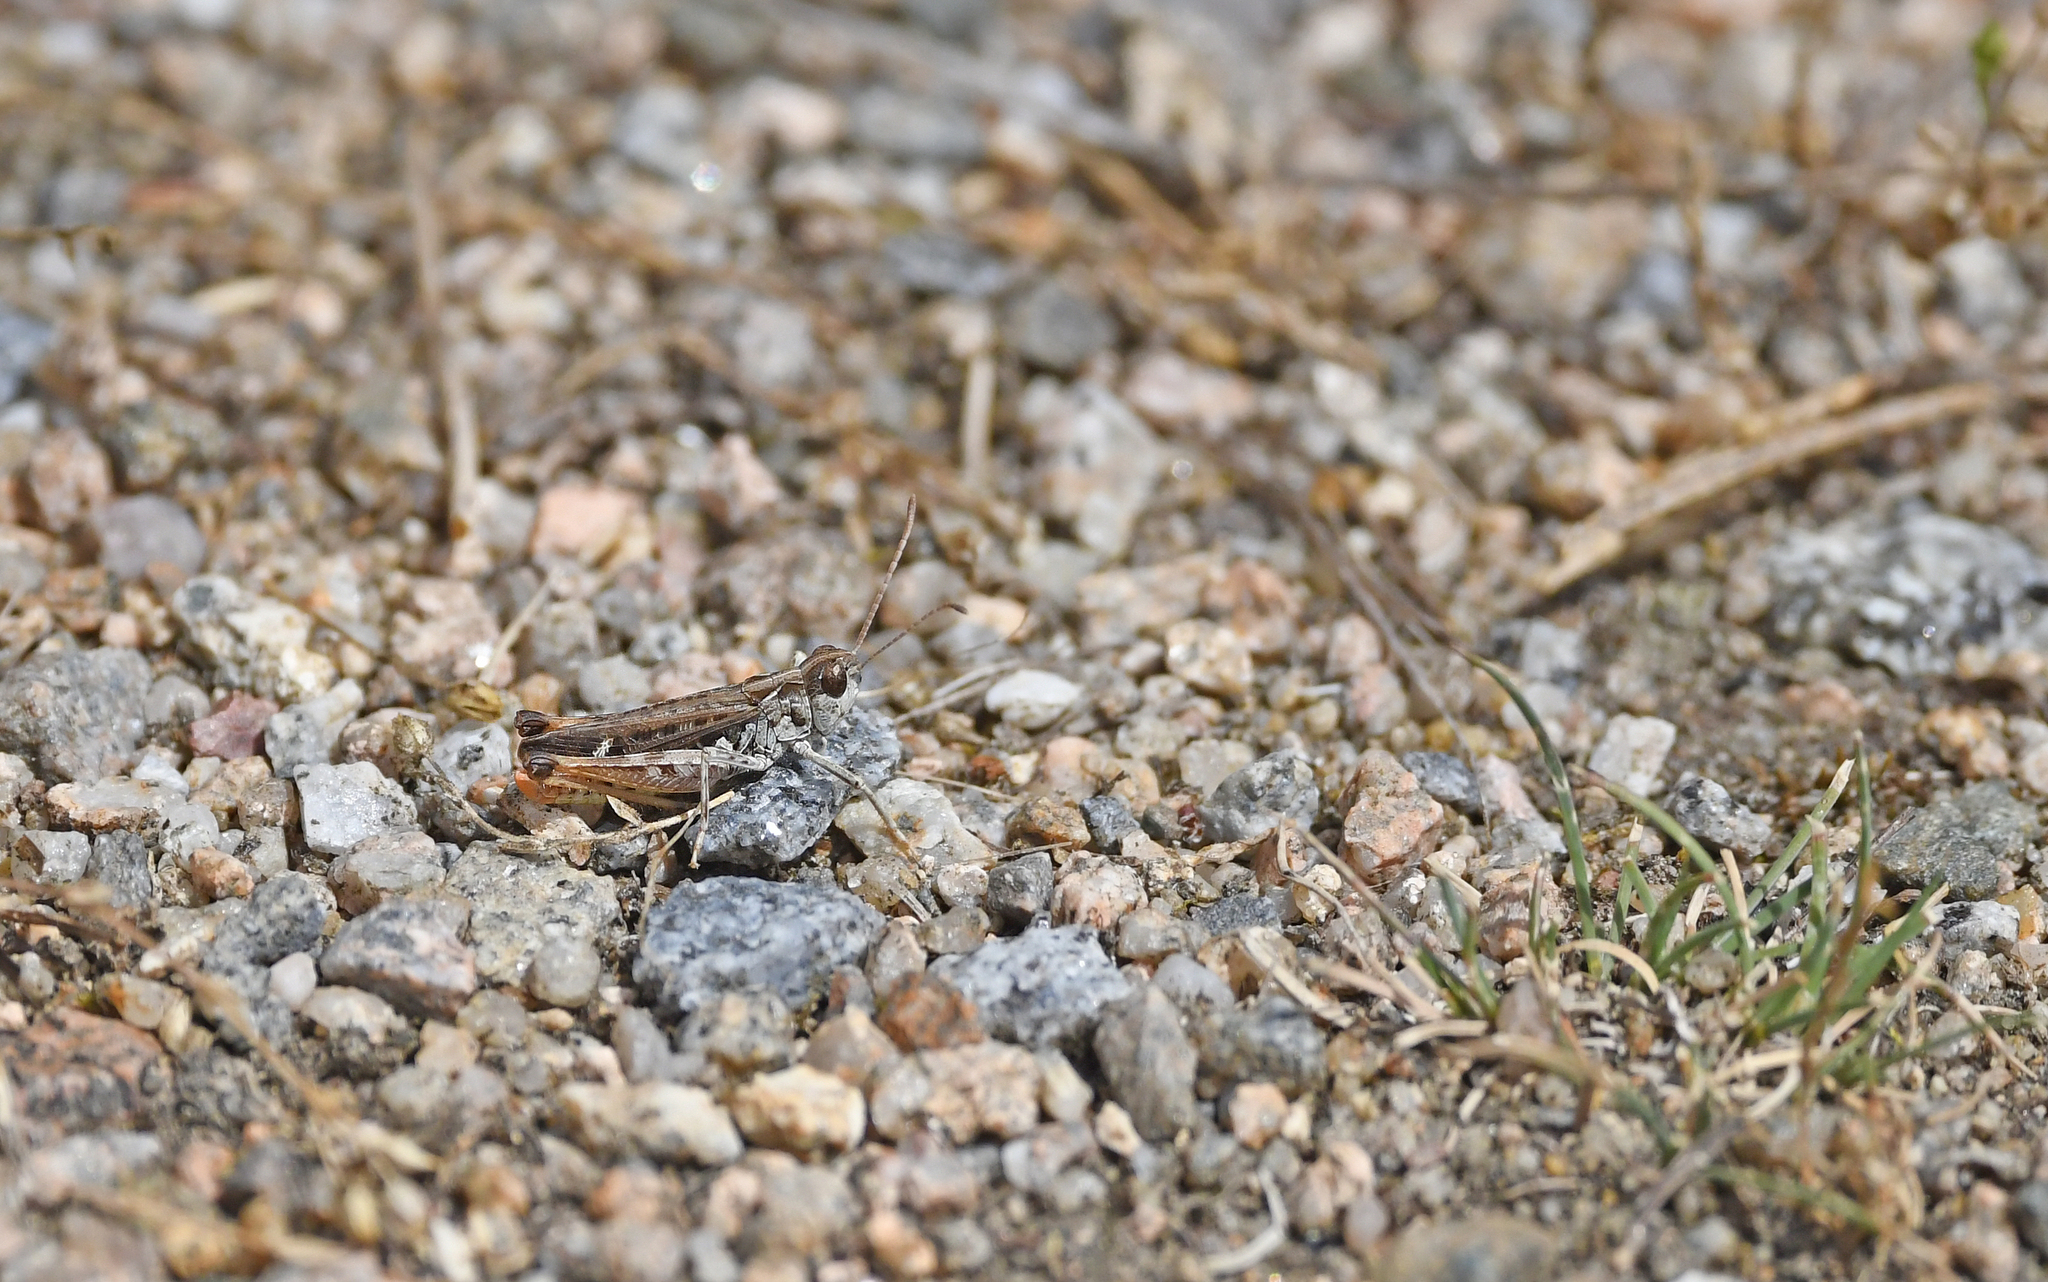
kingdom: Animalia
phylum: Arthropoda
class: Insecta
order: Orthoptera
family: Acrididae
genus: Myrmeleotettix
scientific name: Myrmeleotettix maculatus
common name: Mottled grasshopper
